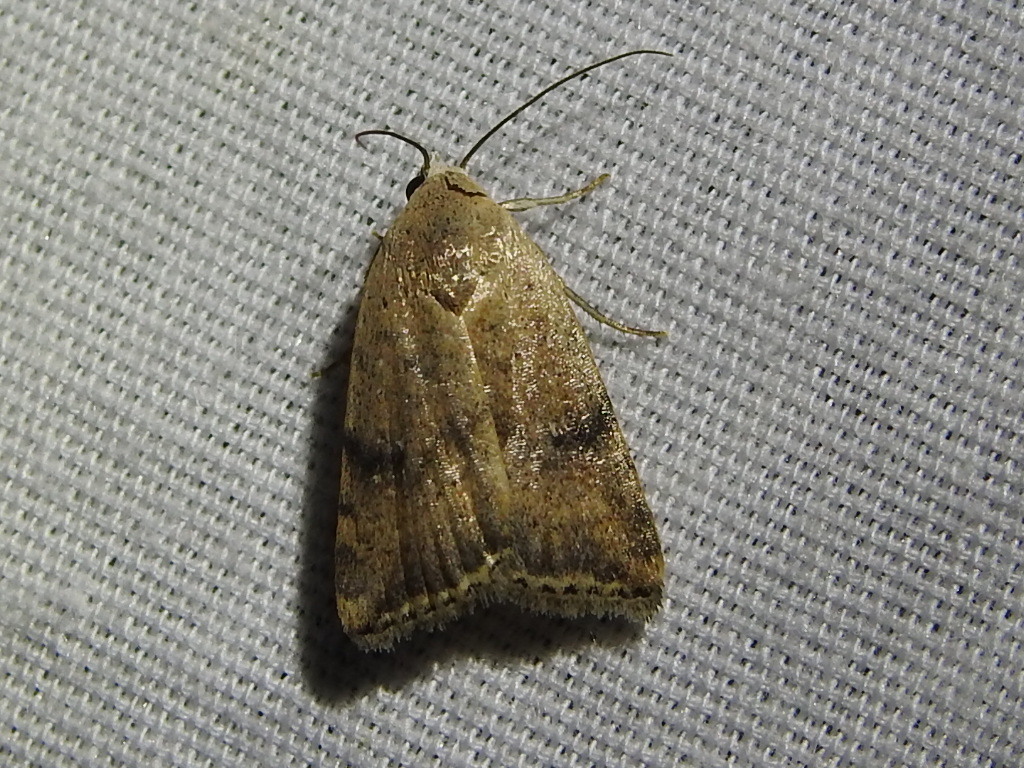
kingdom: Animalia
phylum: Arthropoda
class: Insecta
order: Lepidoptera
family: Noctuidae
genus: Micrathetis
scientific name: Micrathetis triplex
